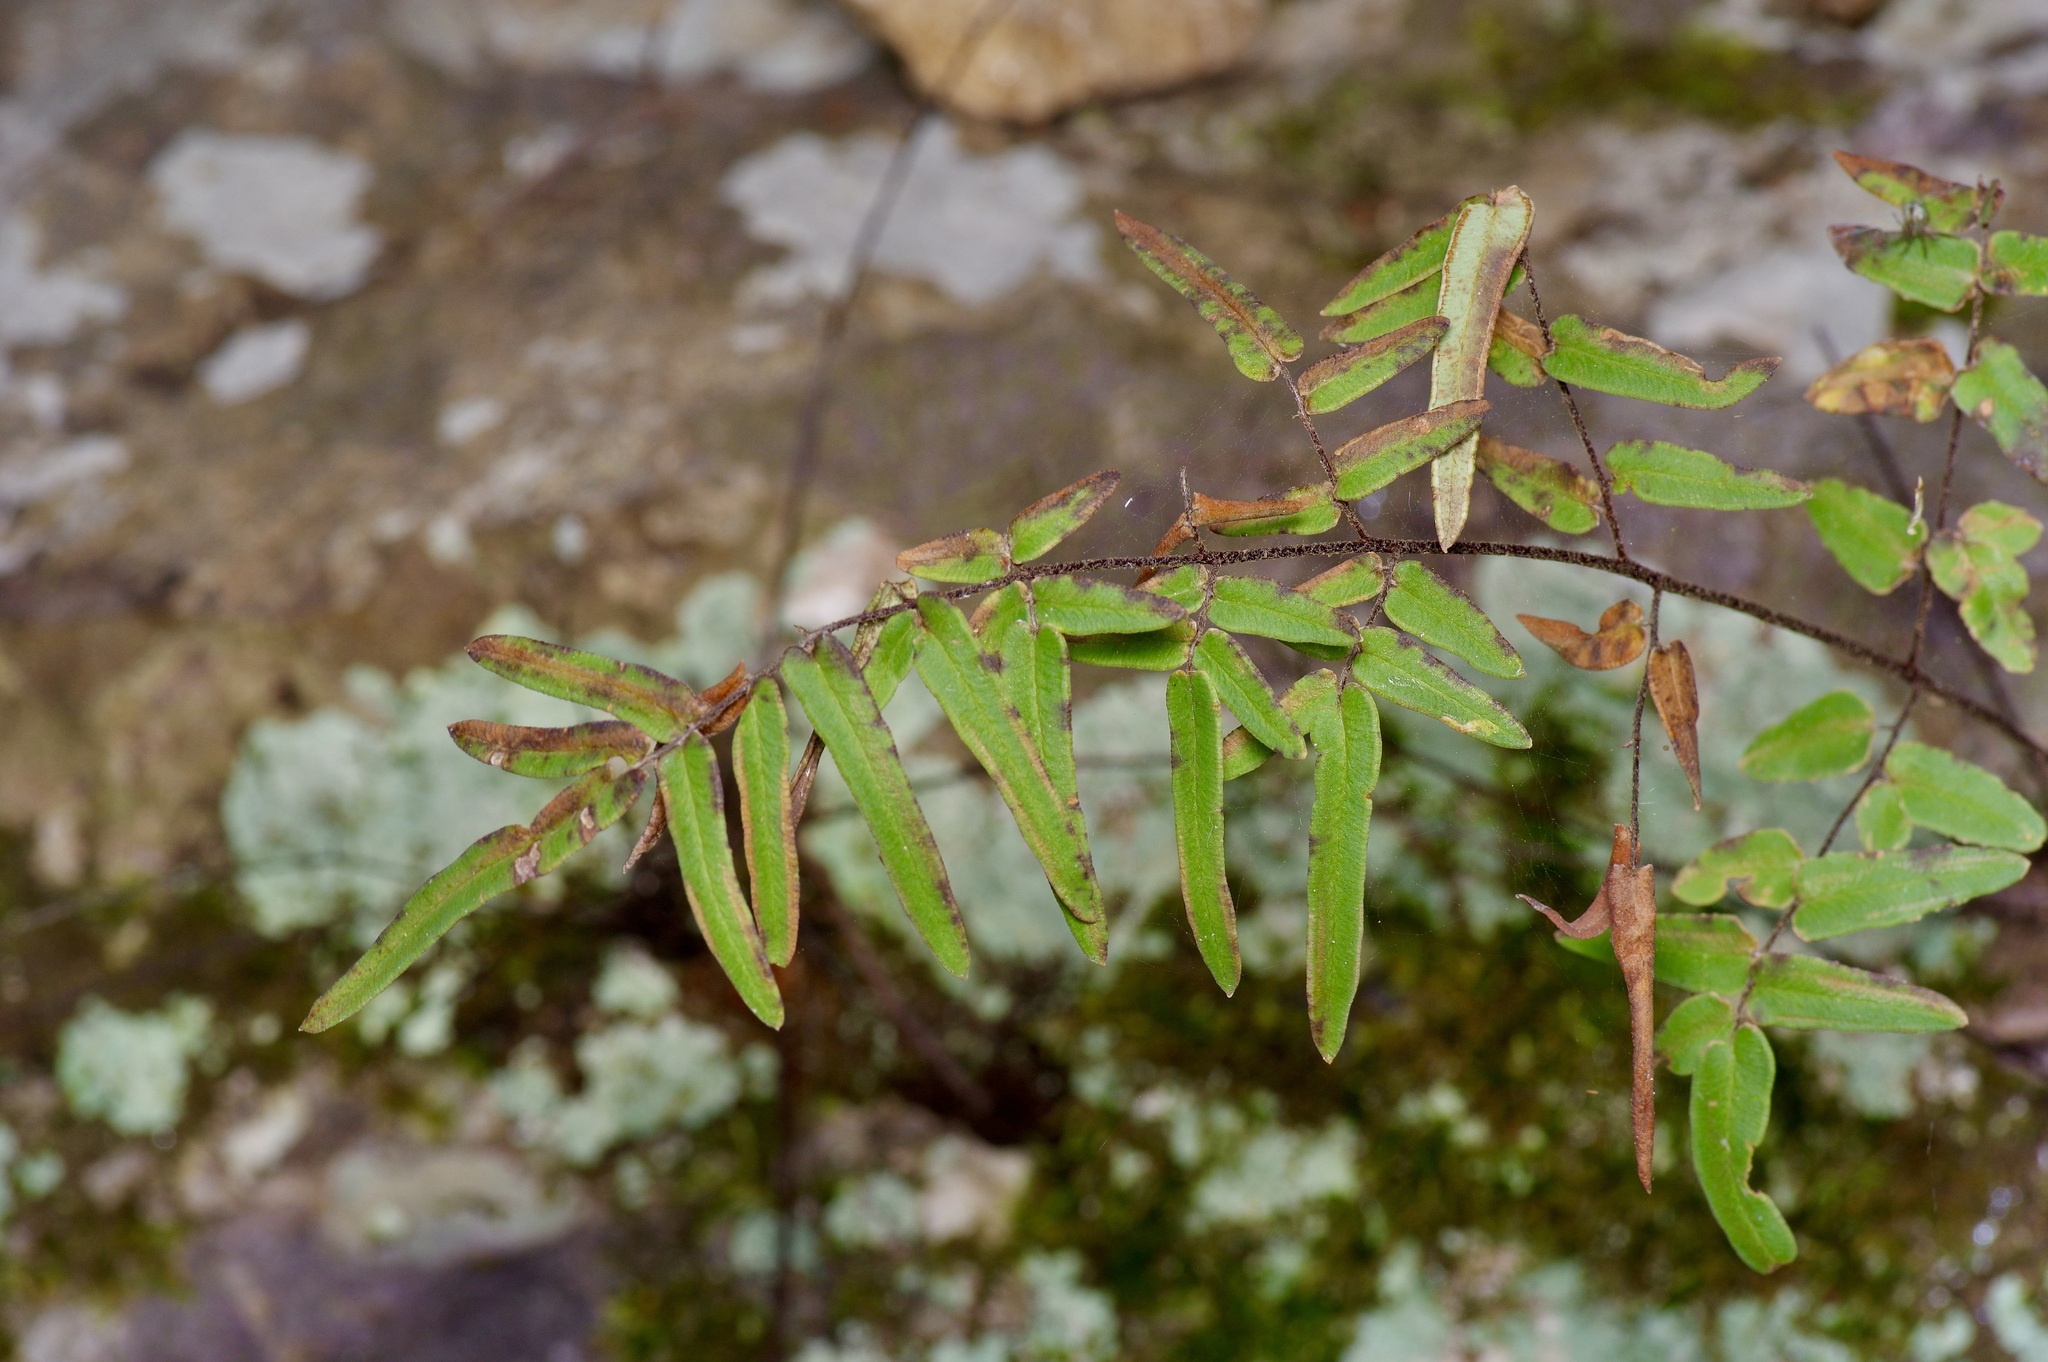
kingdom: Plantae
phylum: Tracheophyta
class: Polypodiopsida
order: Polypodiales
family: Pteridaceae
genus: Pellaea
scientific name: Pellaea atropurpurea
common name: Hairy cliffbrake
